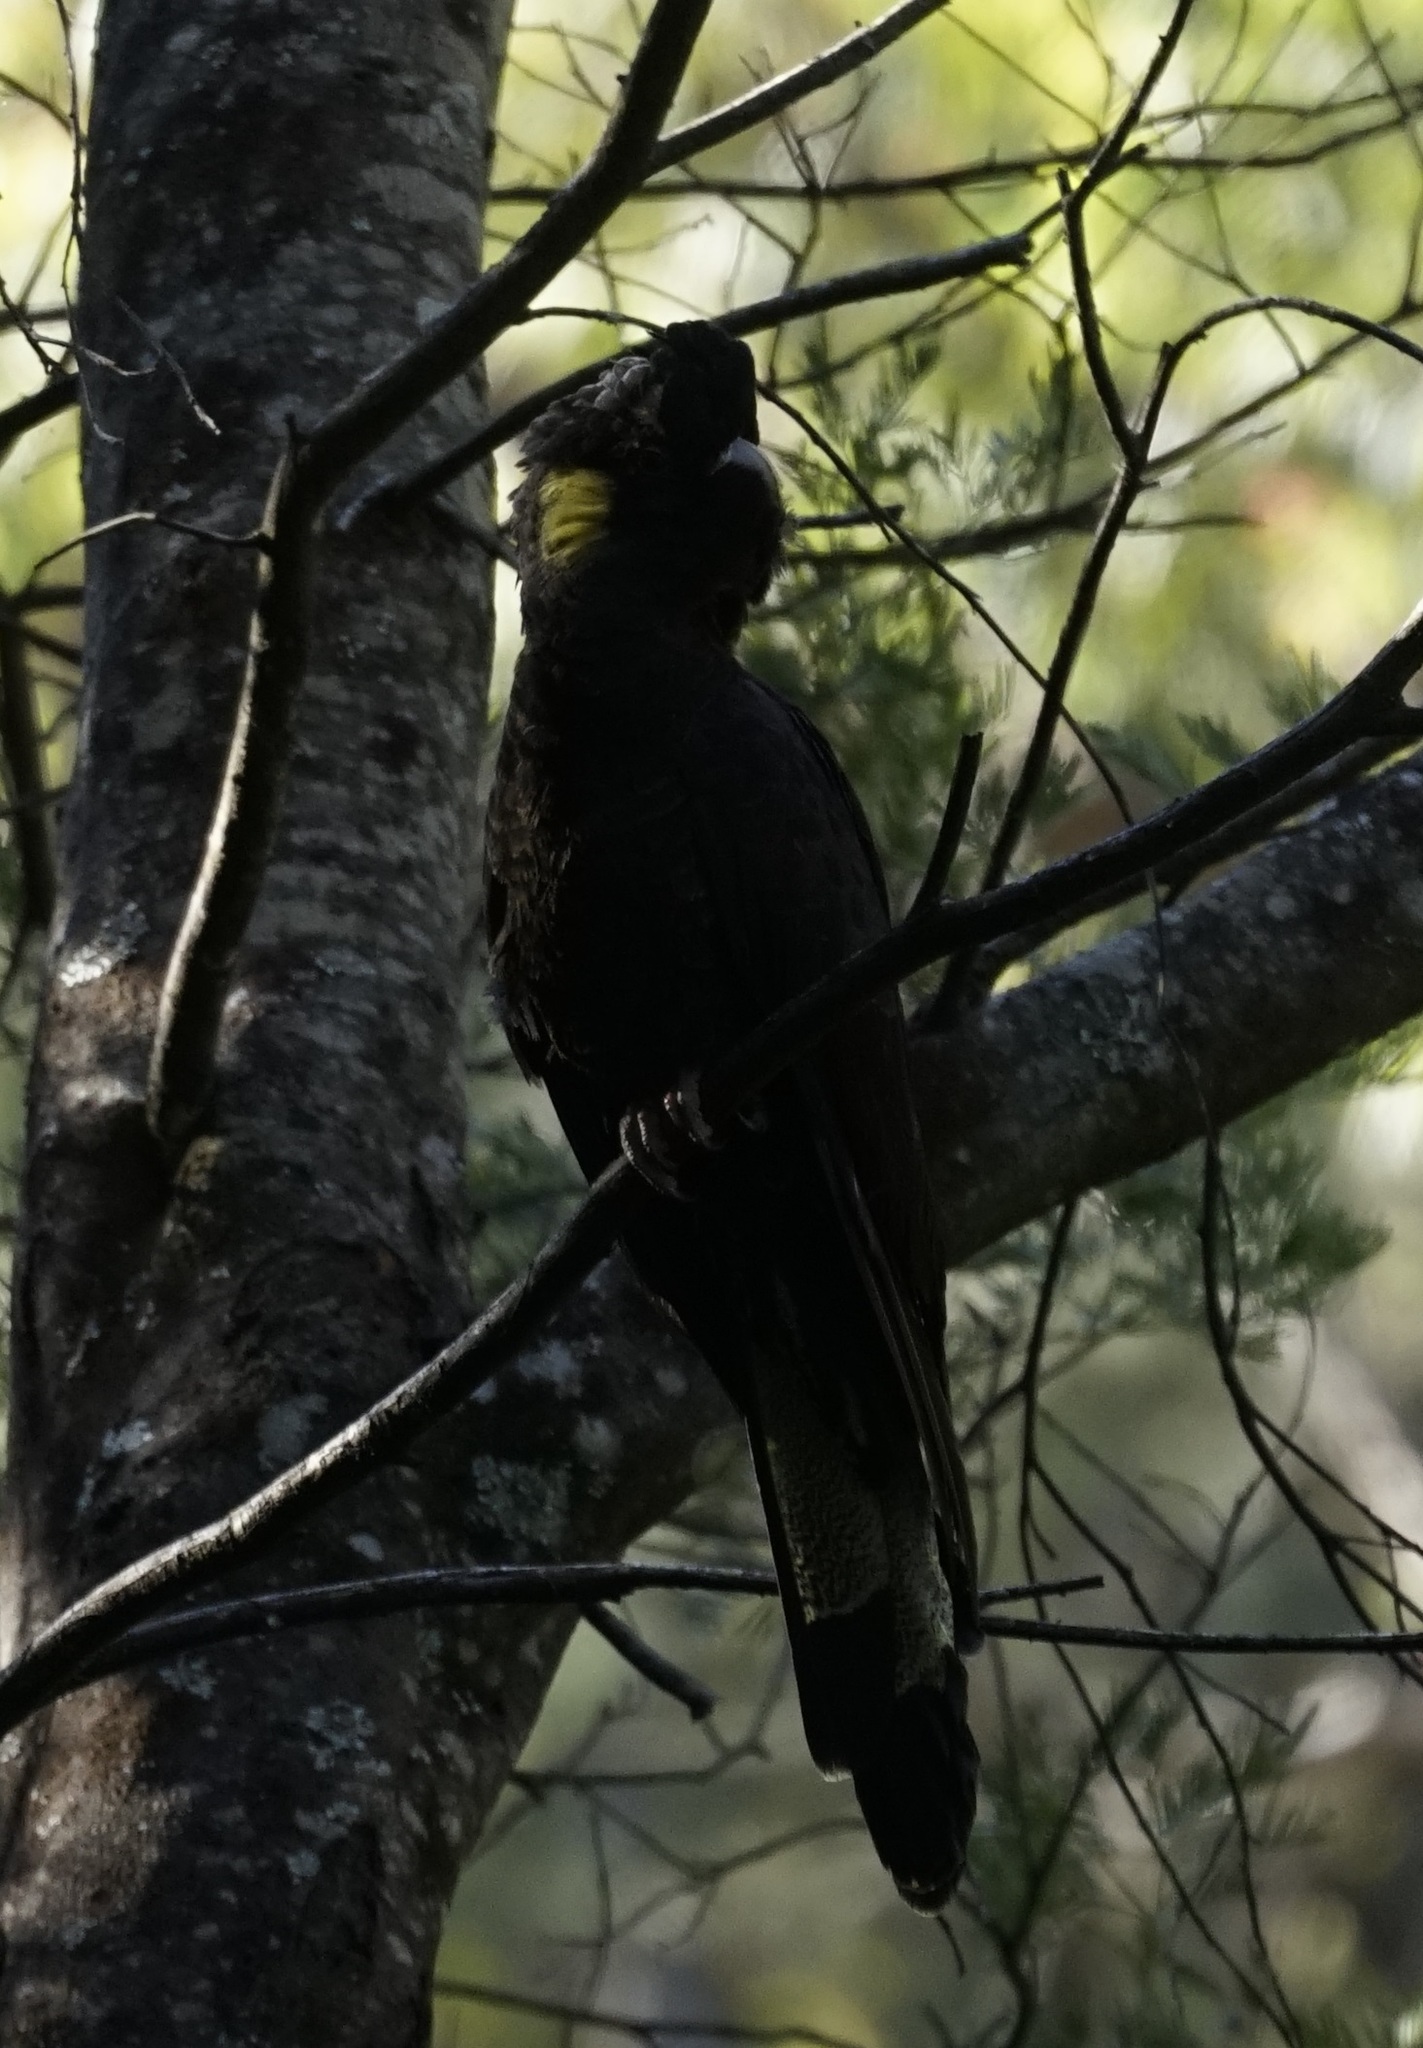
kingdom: Animalia
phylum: Chordata
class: Aves
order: Psittaciformes
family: Cacatuidae
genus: Zanda
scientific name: Zanda funerea
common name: Yellow-tailed black-cockatoo
